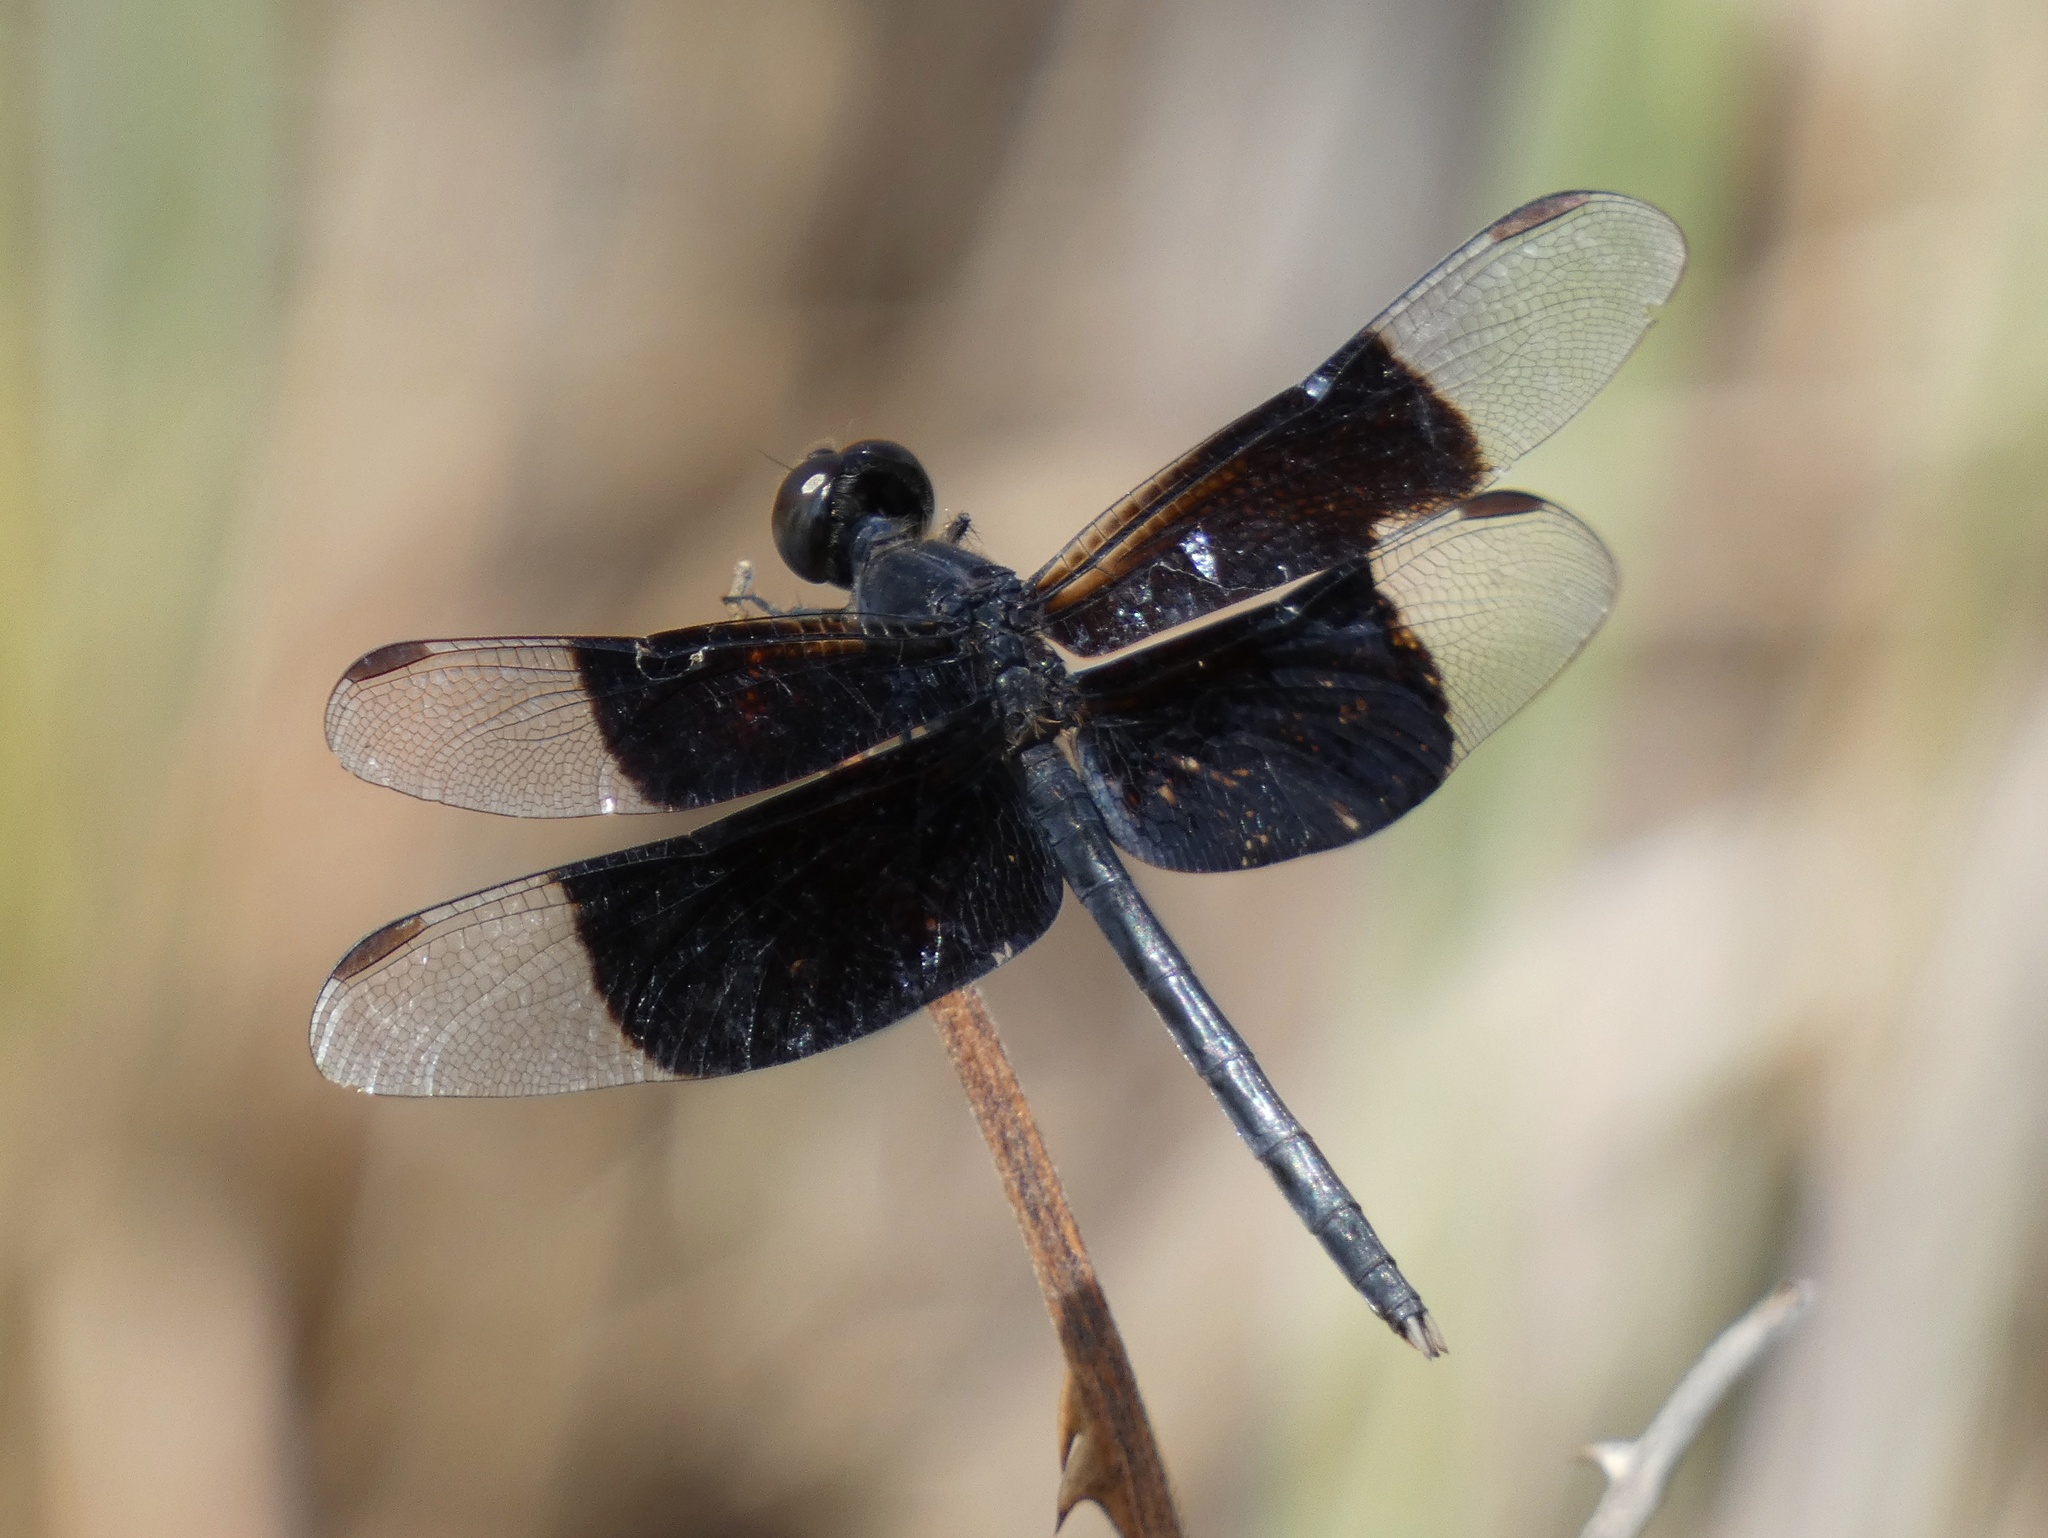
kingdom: Animalia
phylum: Arthropoda
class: Insecta
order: Odonata
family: Libellulidae
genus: Erythrodiplax
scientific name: Erythrodiplax funerea
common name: Black-winged dragonlet
